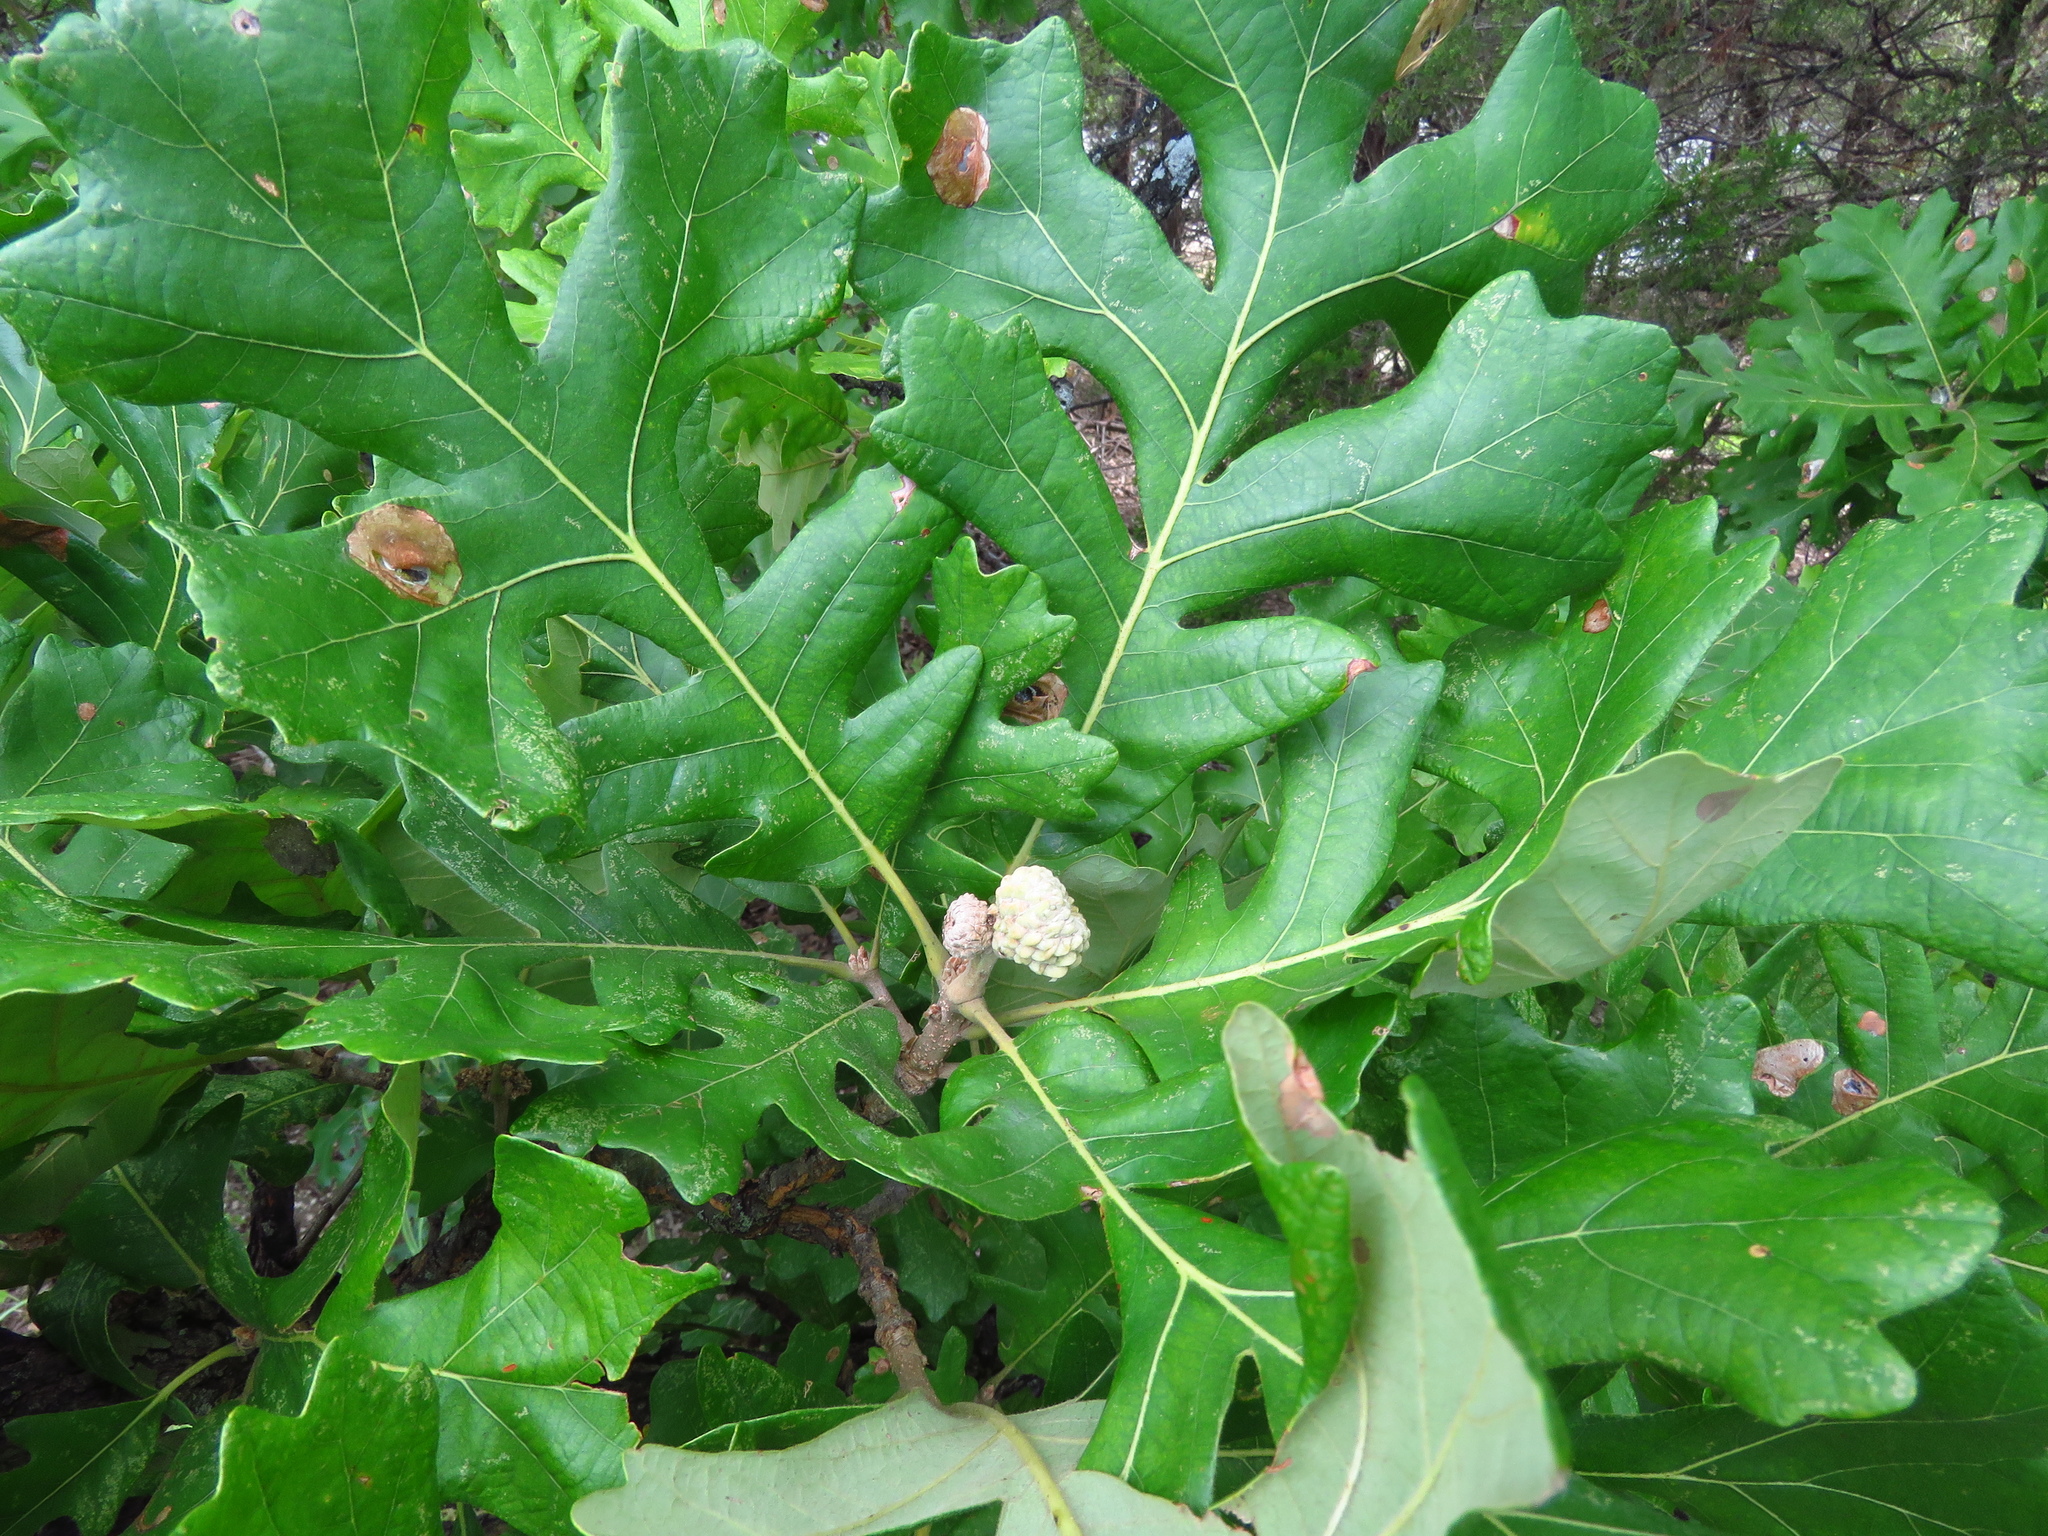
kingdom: Plantae
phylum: Tracheophyta
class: Magnoliopsida
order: Fagales
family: Fagaceae
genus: Quercus
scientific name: Quercus macrocarpa
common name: Bur oak
